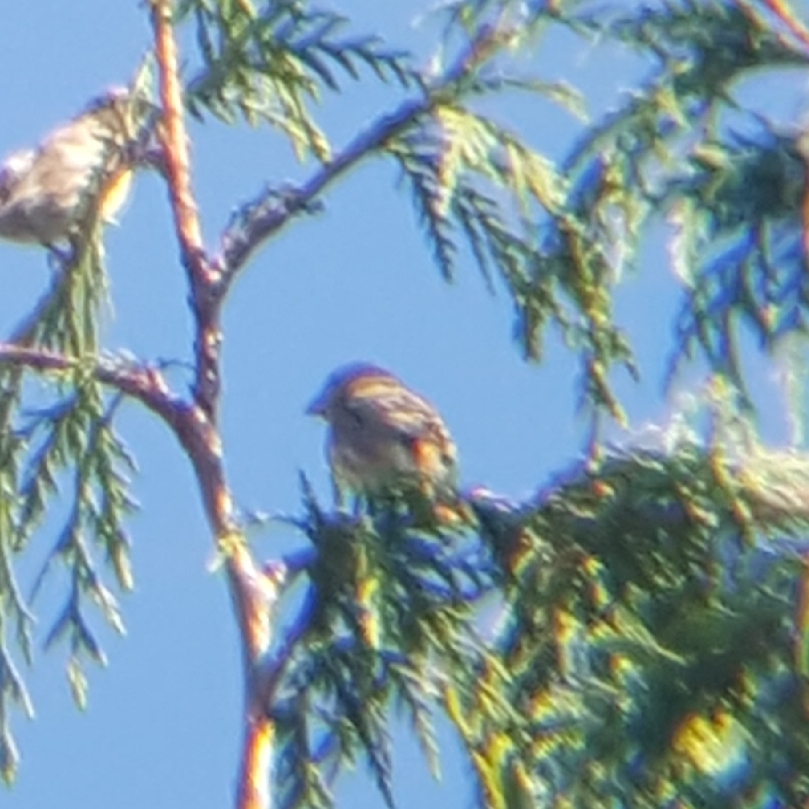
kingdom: Animalia
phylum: Chordata
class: Aves
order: Passeriformes
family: Fringillidae
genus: Haemorhous
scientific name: Haemorhous
